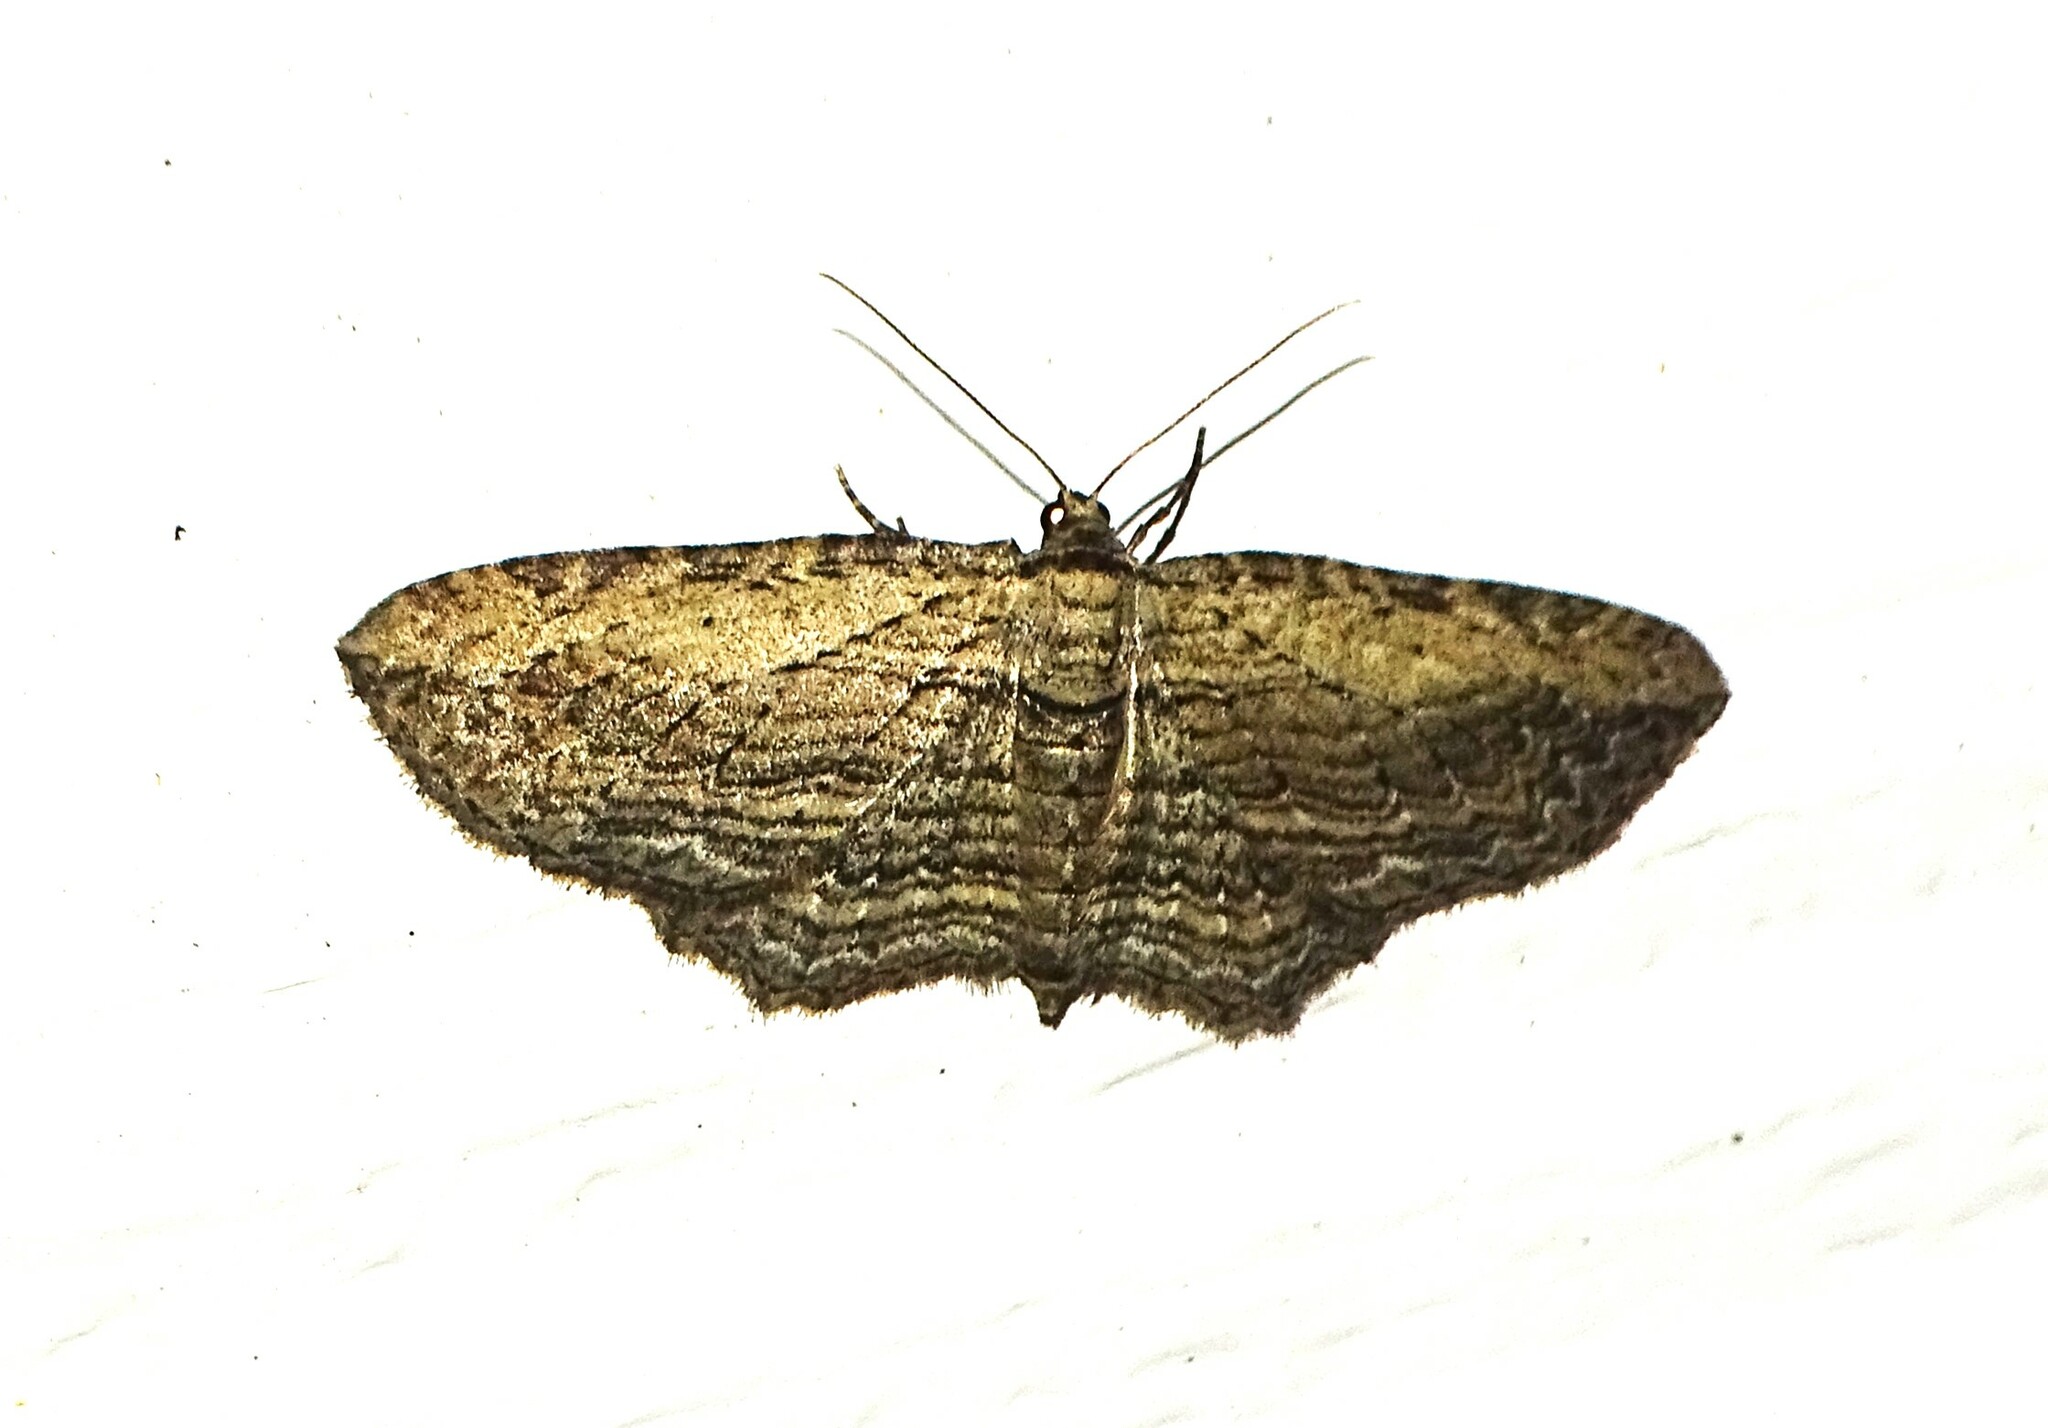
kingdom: Animalia
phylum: Arthropoda
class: Insecta
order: Lepidoptera
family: Geometridae
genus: Horisme
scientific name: Horisme intestinata
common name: Brown bark carpet
